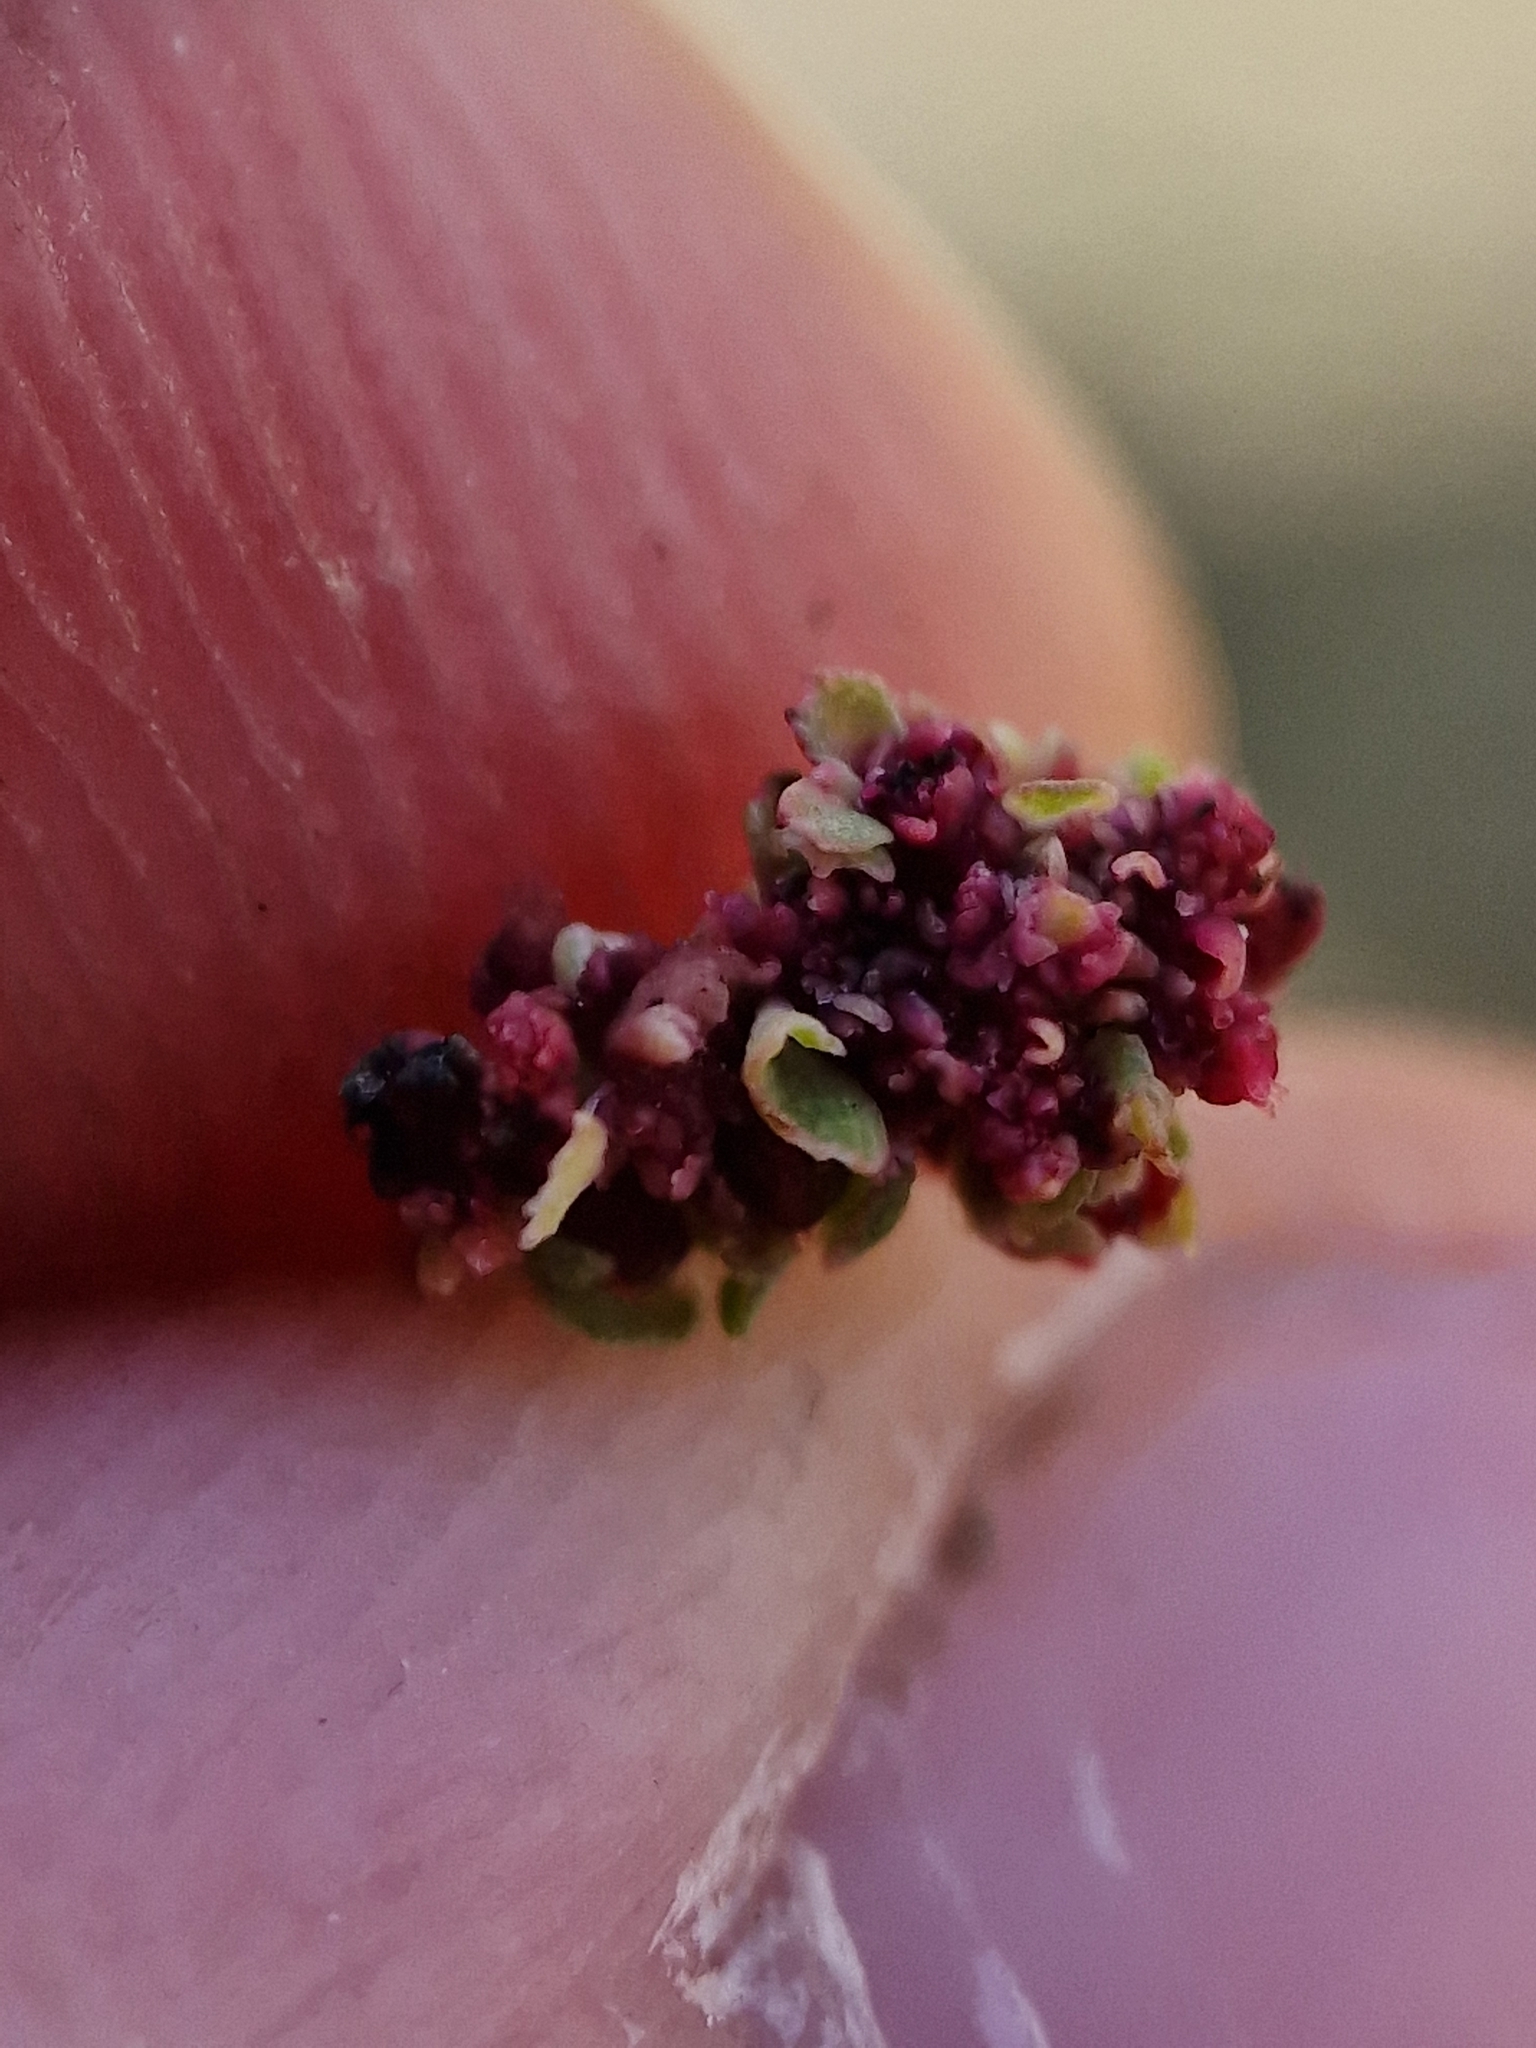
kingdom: Plantae
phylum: Tracheophyta
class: Magnoliopsida
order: Malpighiales
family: Euphorbiaceae
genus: Euphorbia
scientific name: Euphorbia serpens
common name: Matted sandmat
